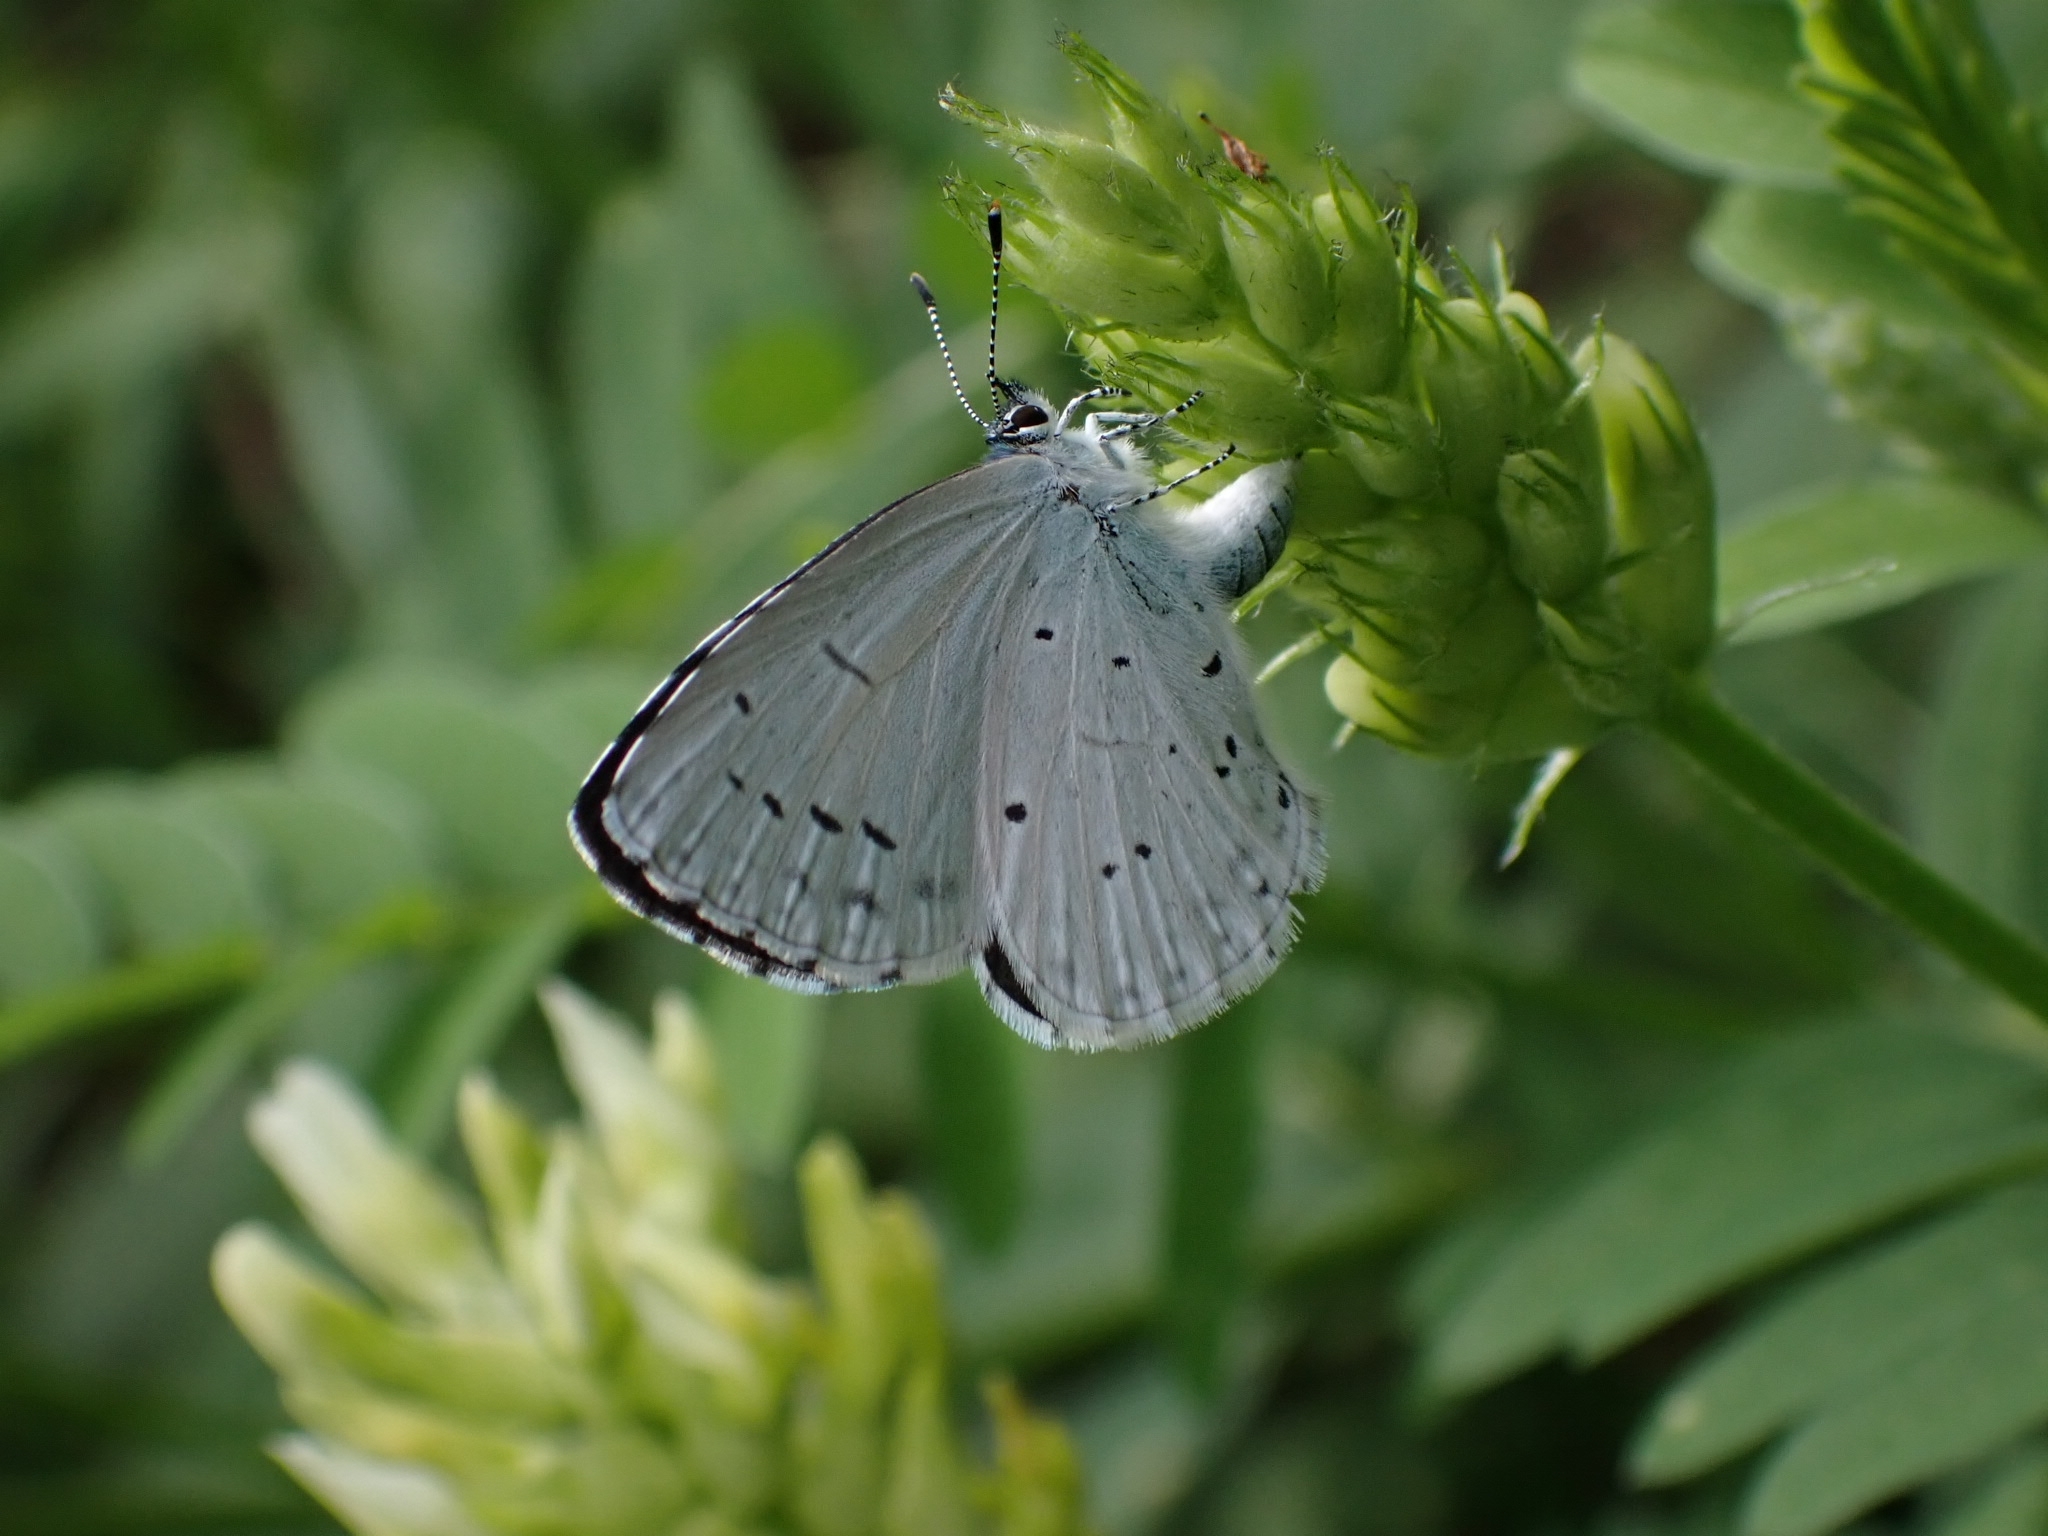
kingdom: Animalia
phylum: Arthropoda
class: Insecta
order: Lepidoptera
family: Lycaenidae
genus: Celastrina
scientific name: Celastrina argiolus
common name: Holly blue
